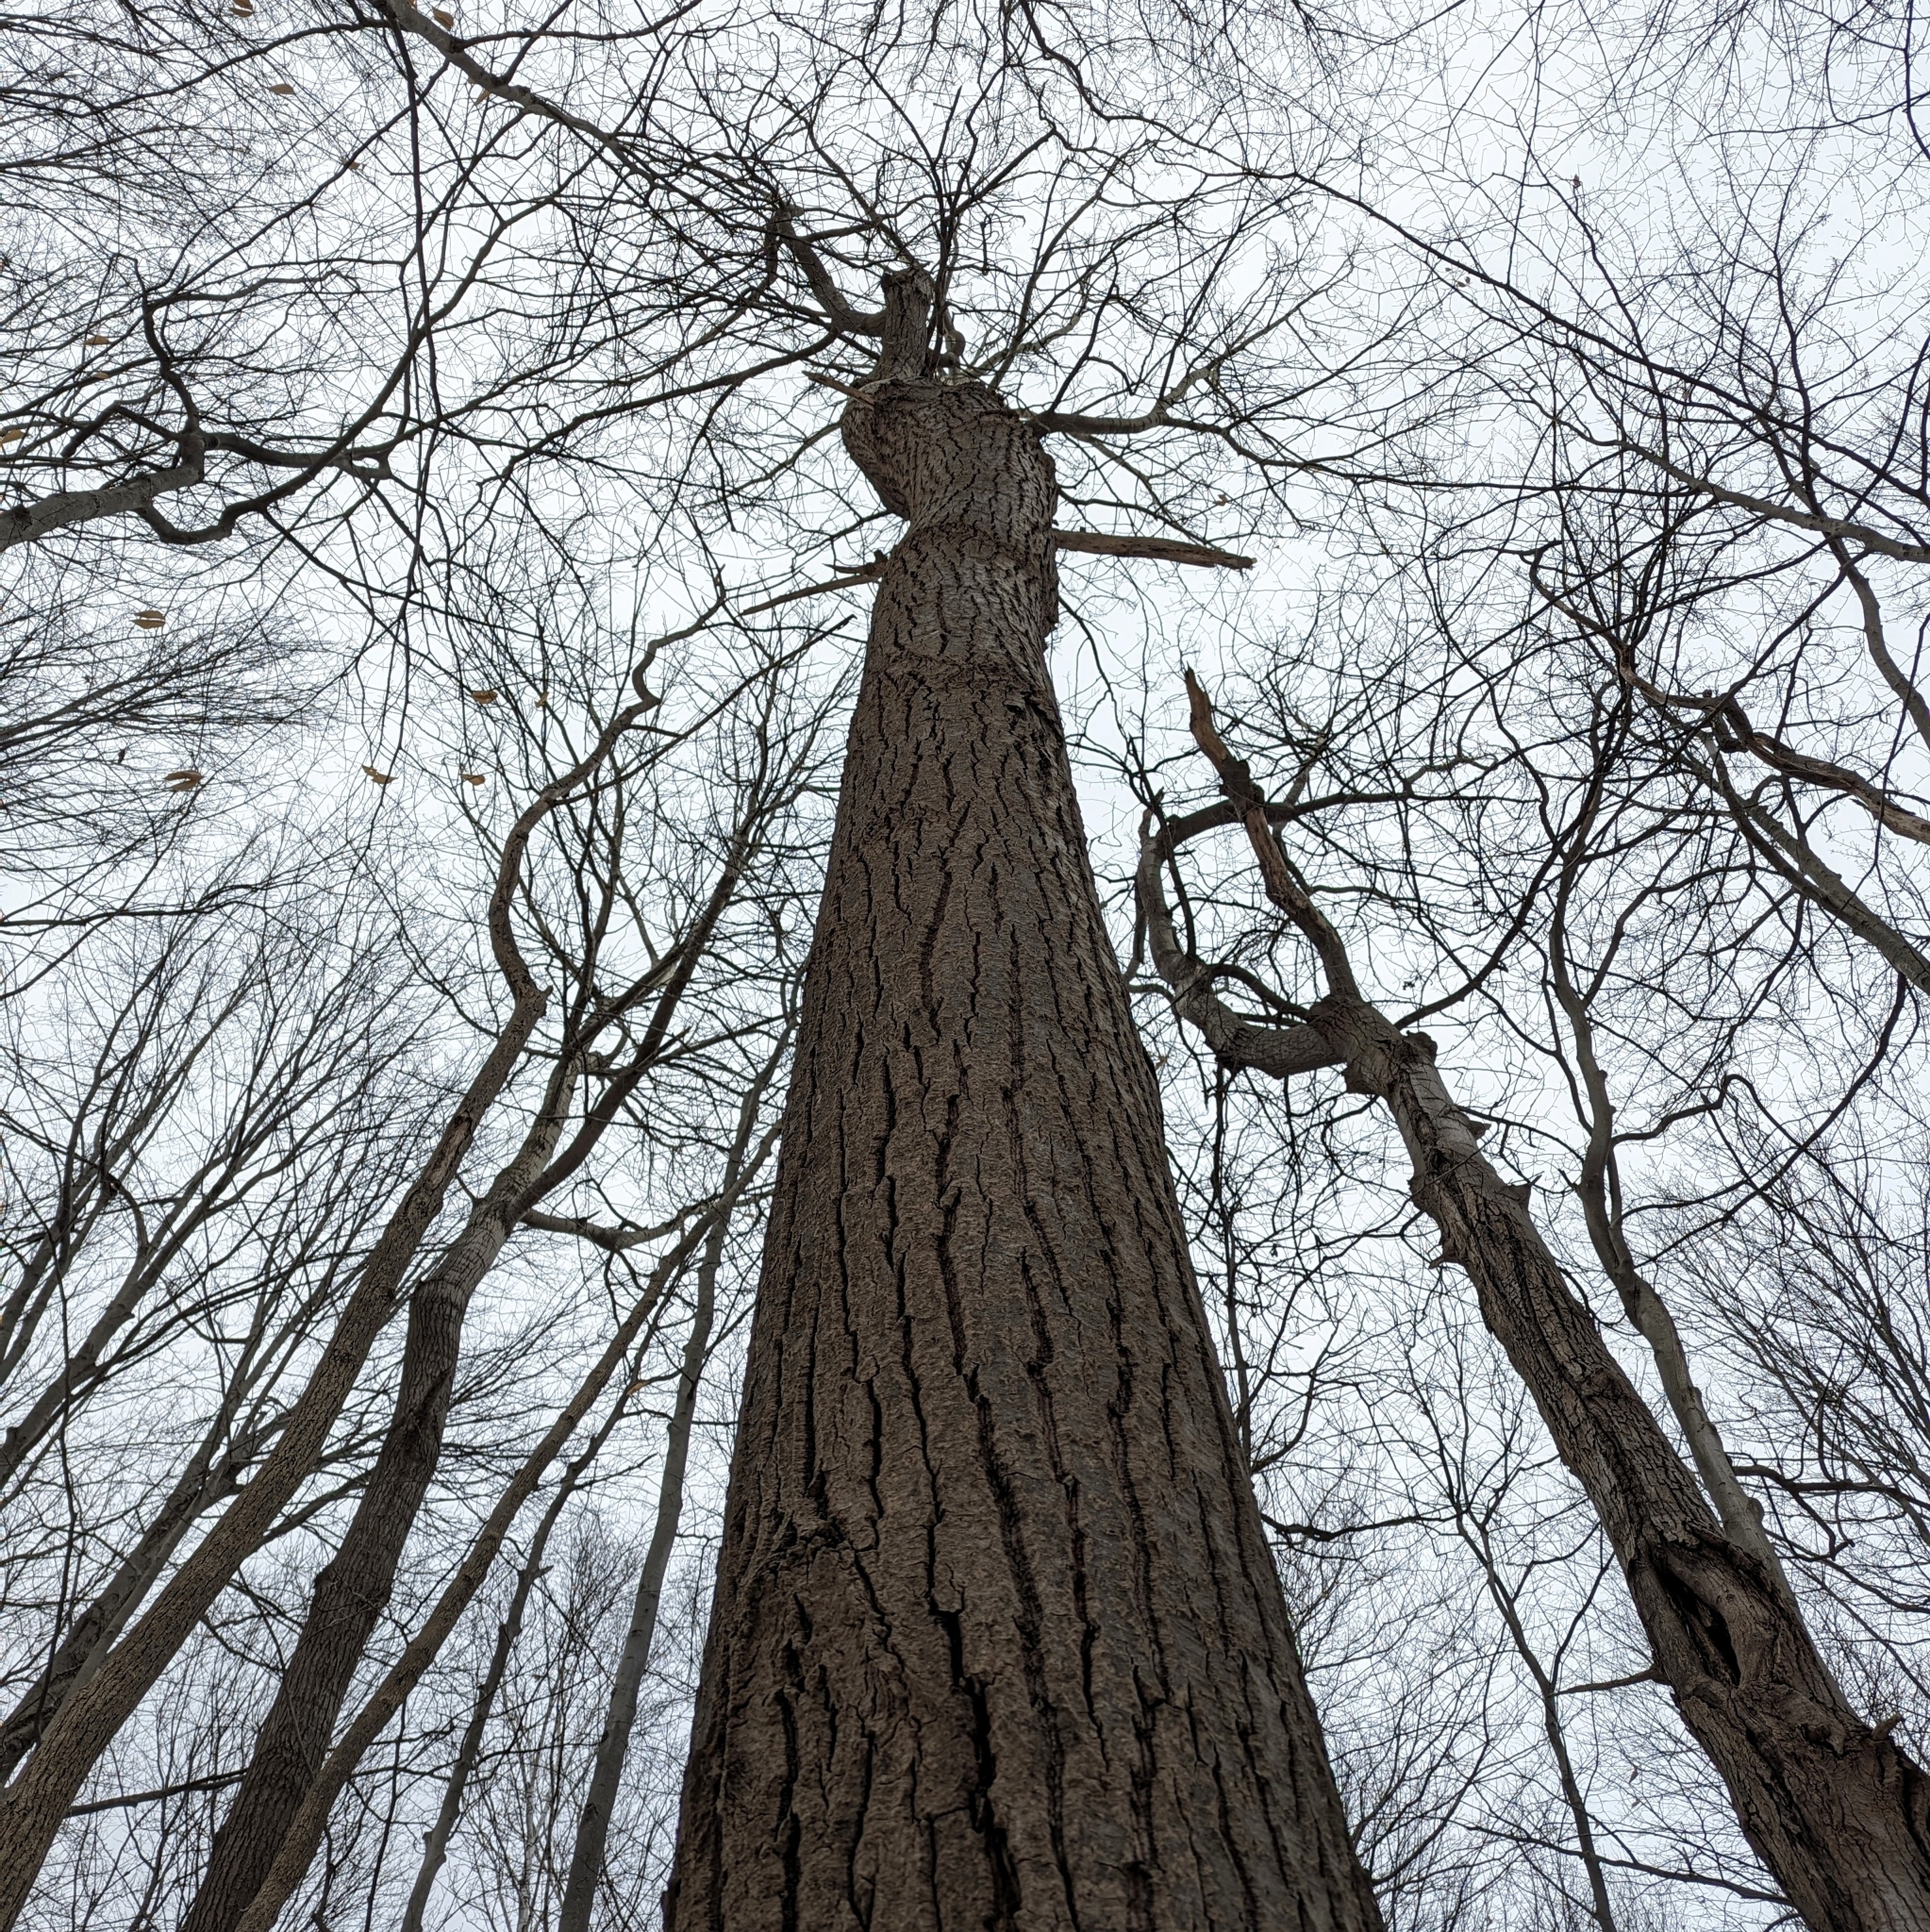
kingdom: Plantae
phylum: Tracheophyta
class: Magnoliopsida
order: Malpighiales
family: Salicaceae
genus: Populus
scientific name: Populus grandidentata
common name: Bigtooth aspen
